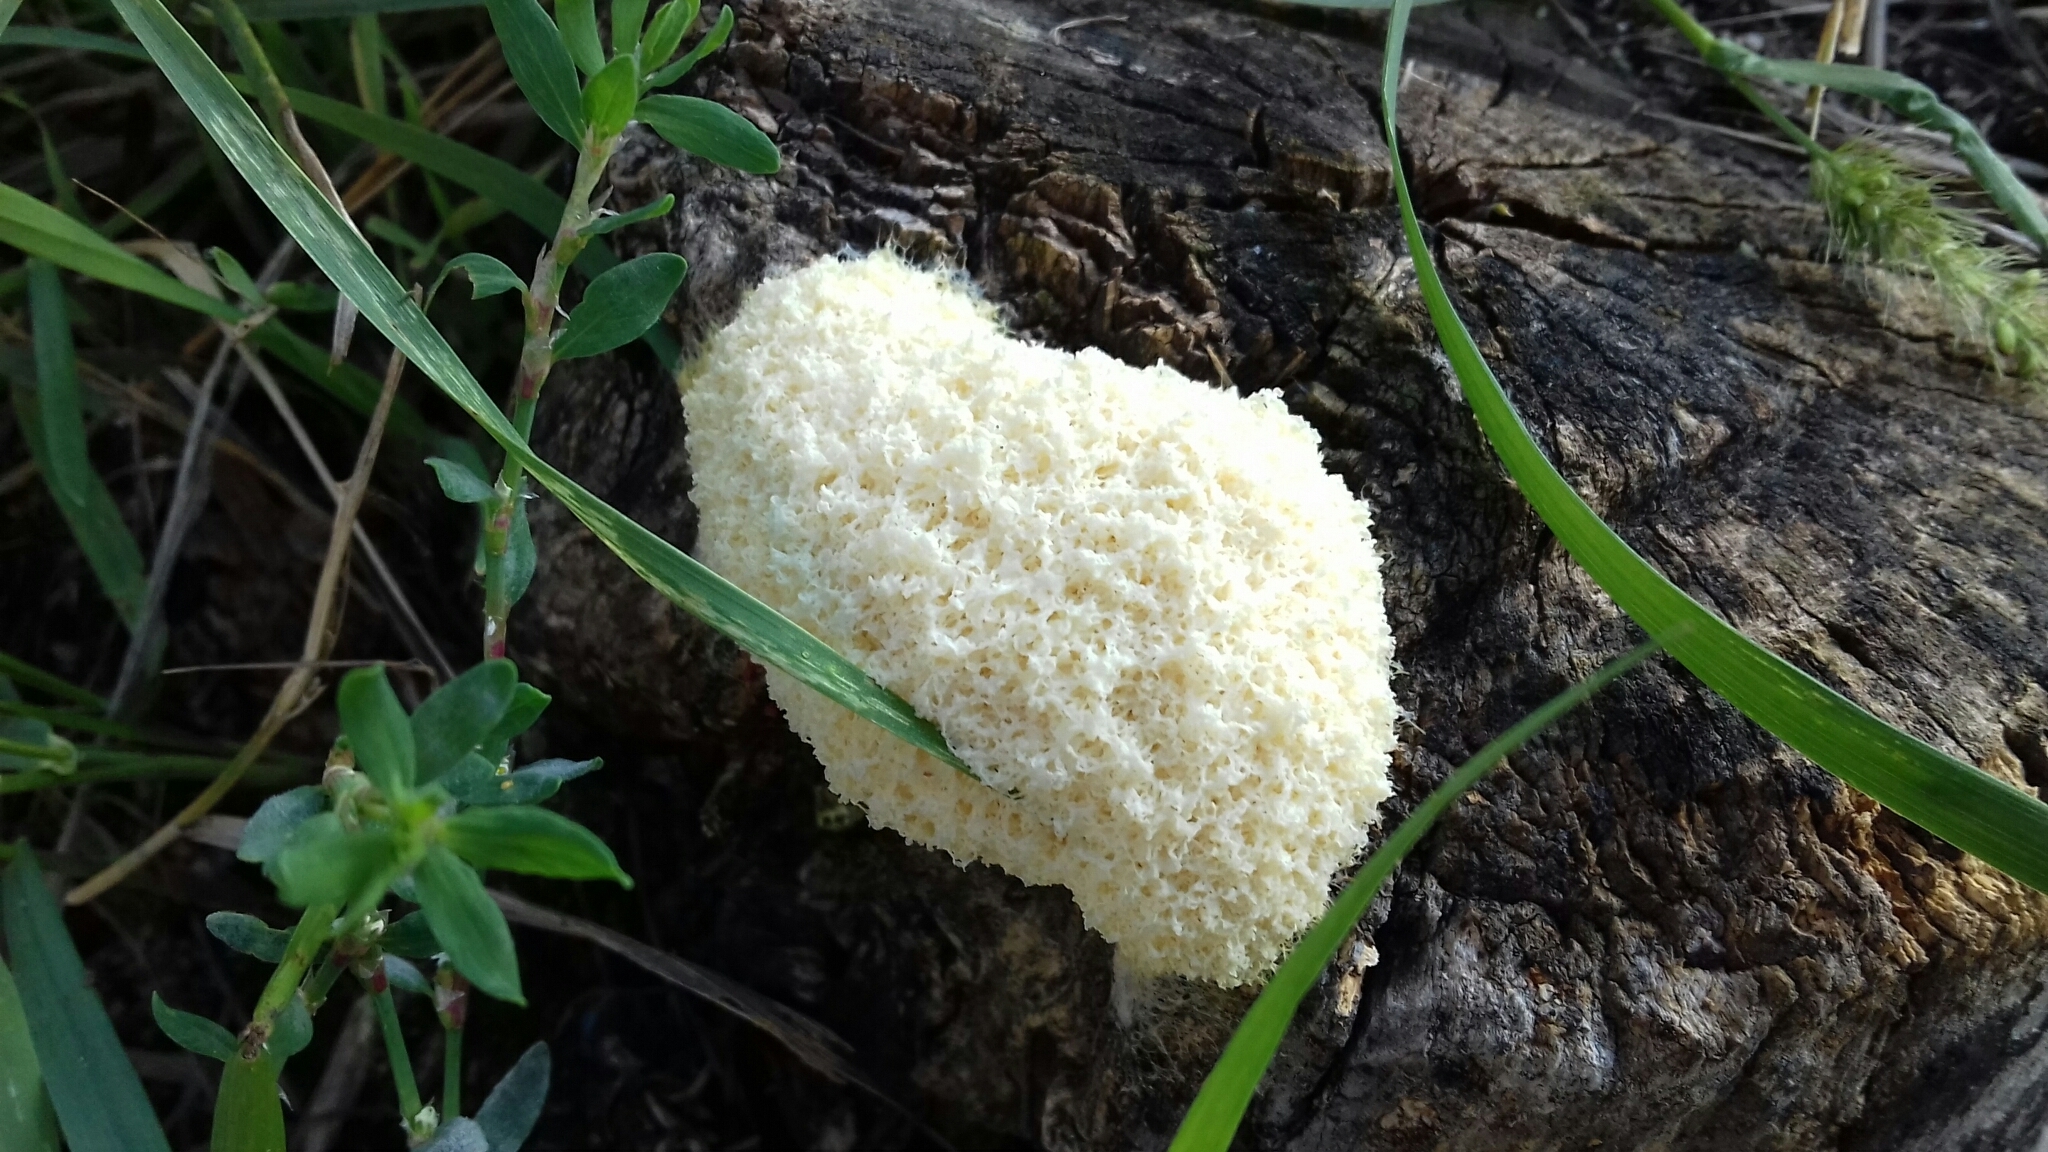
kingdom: Protozoa
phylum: Mycetozoa
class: Myxomycetes
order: Physarales
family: Physaraceae
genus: Fuligo
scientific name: Fuligo septica
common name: Dog vomit slime mold
